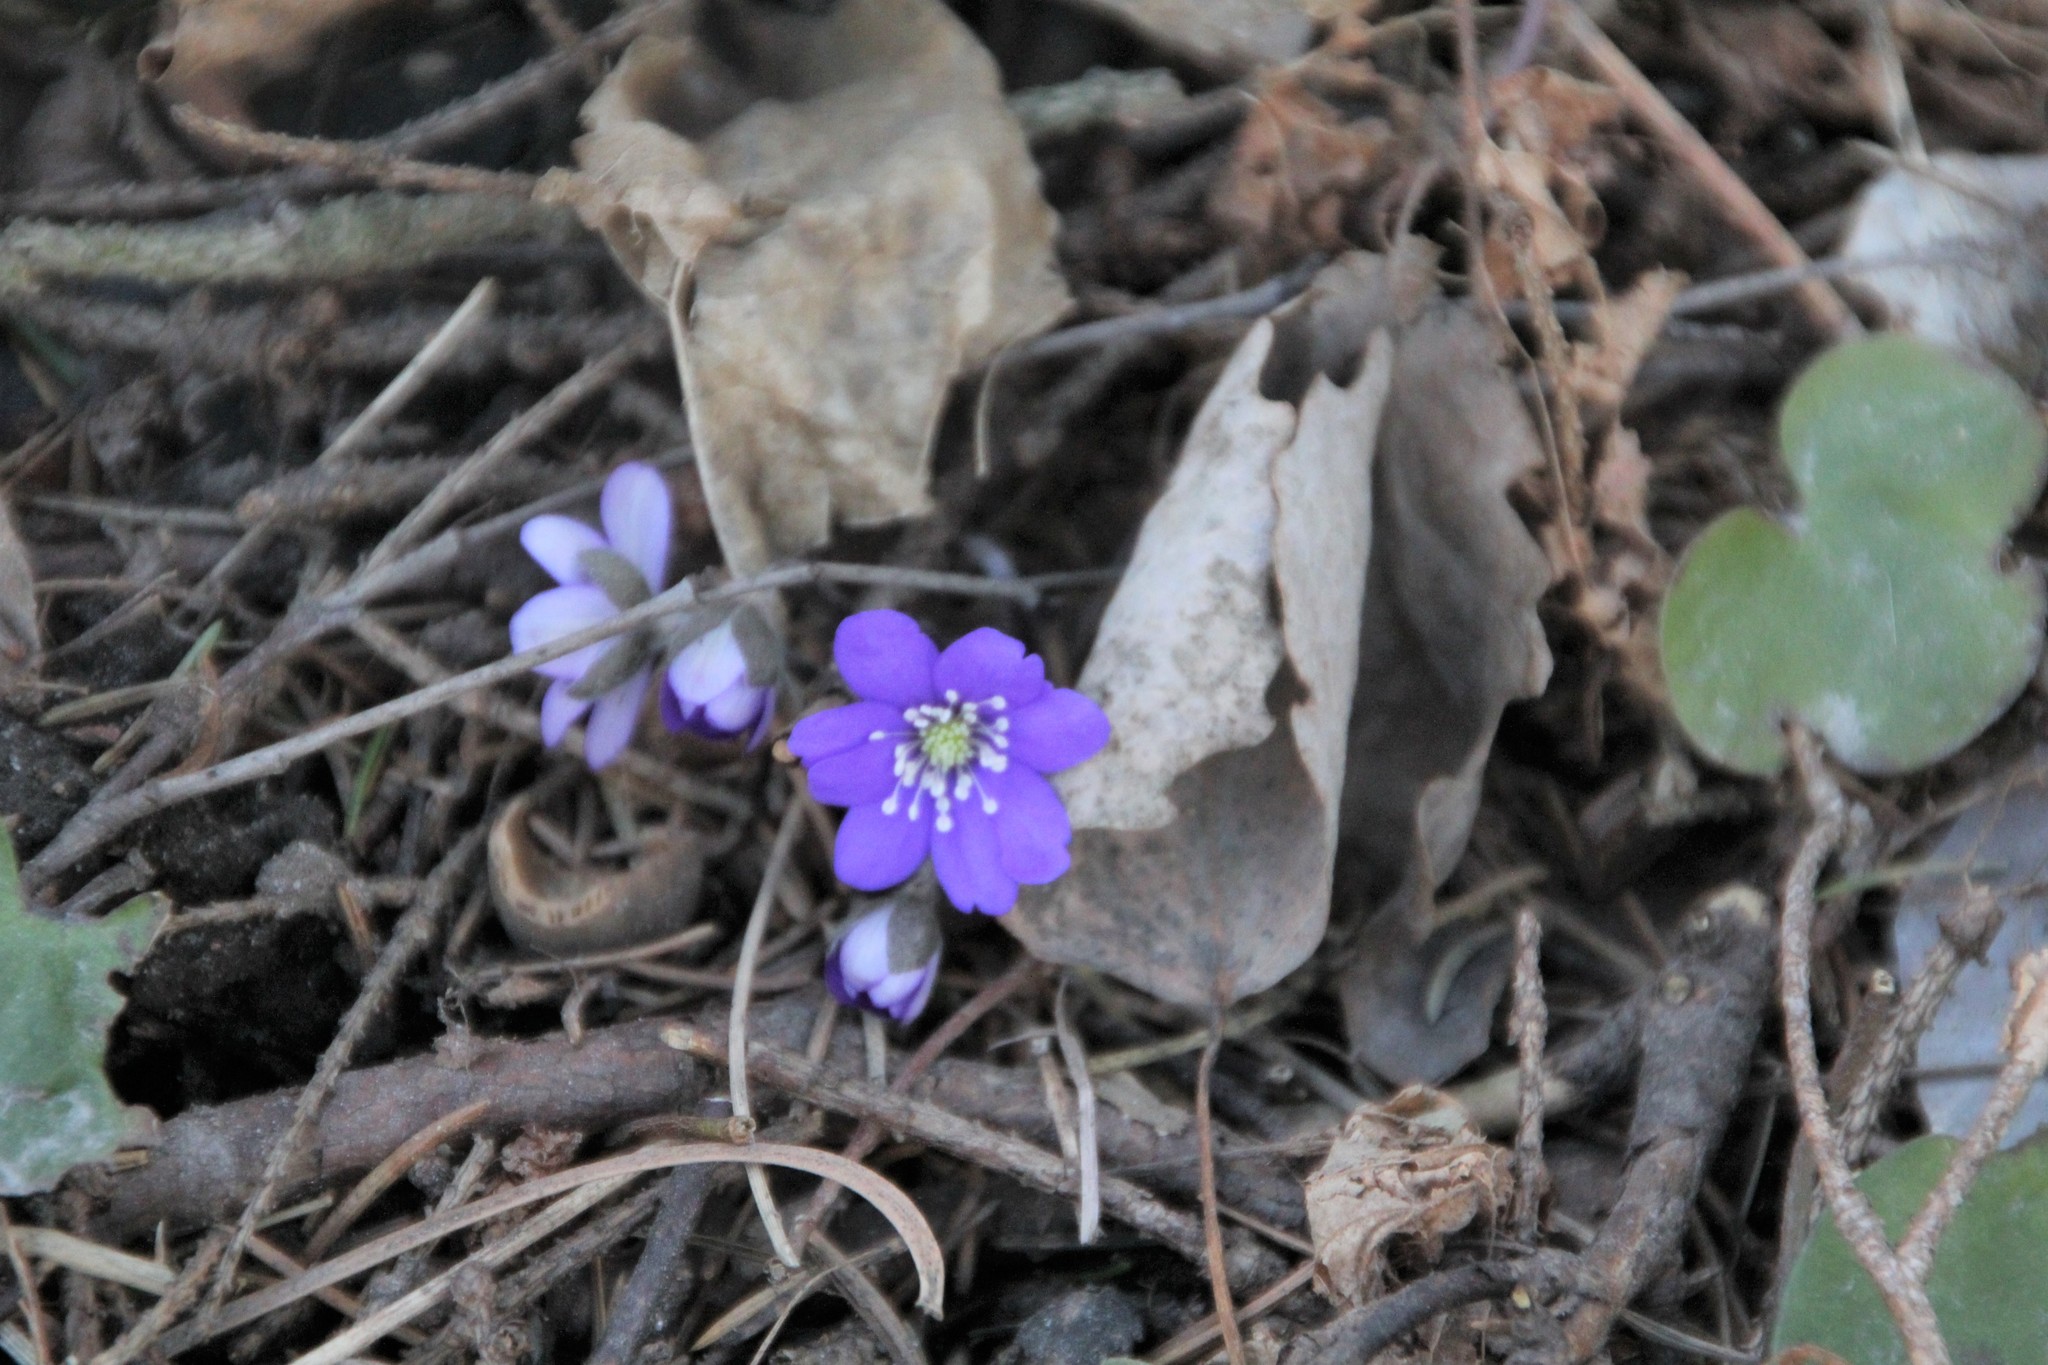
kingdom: Plantae
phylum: Tracheophyta
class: Magnoliopsida
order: Ranunculales
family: Ranunculaceae
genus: Hepatica
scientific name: Hepatica nobilis
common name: Liverleaf
